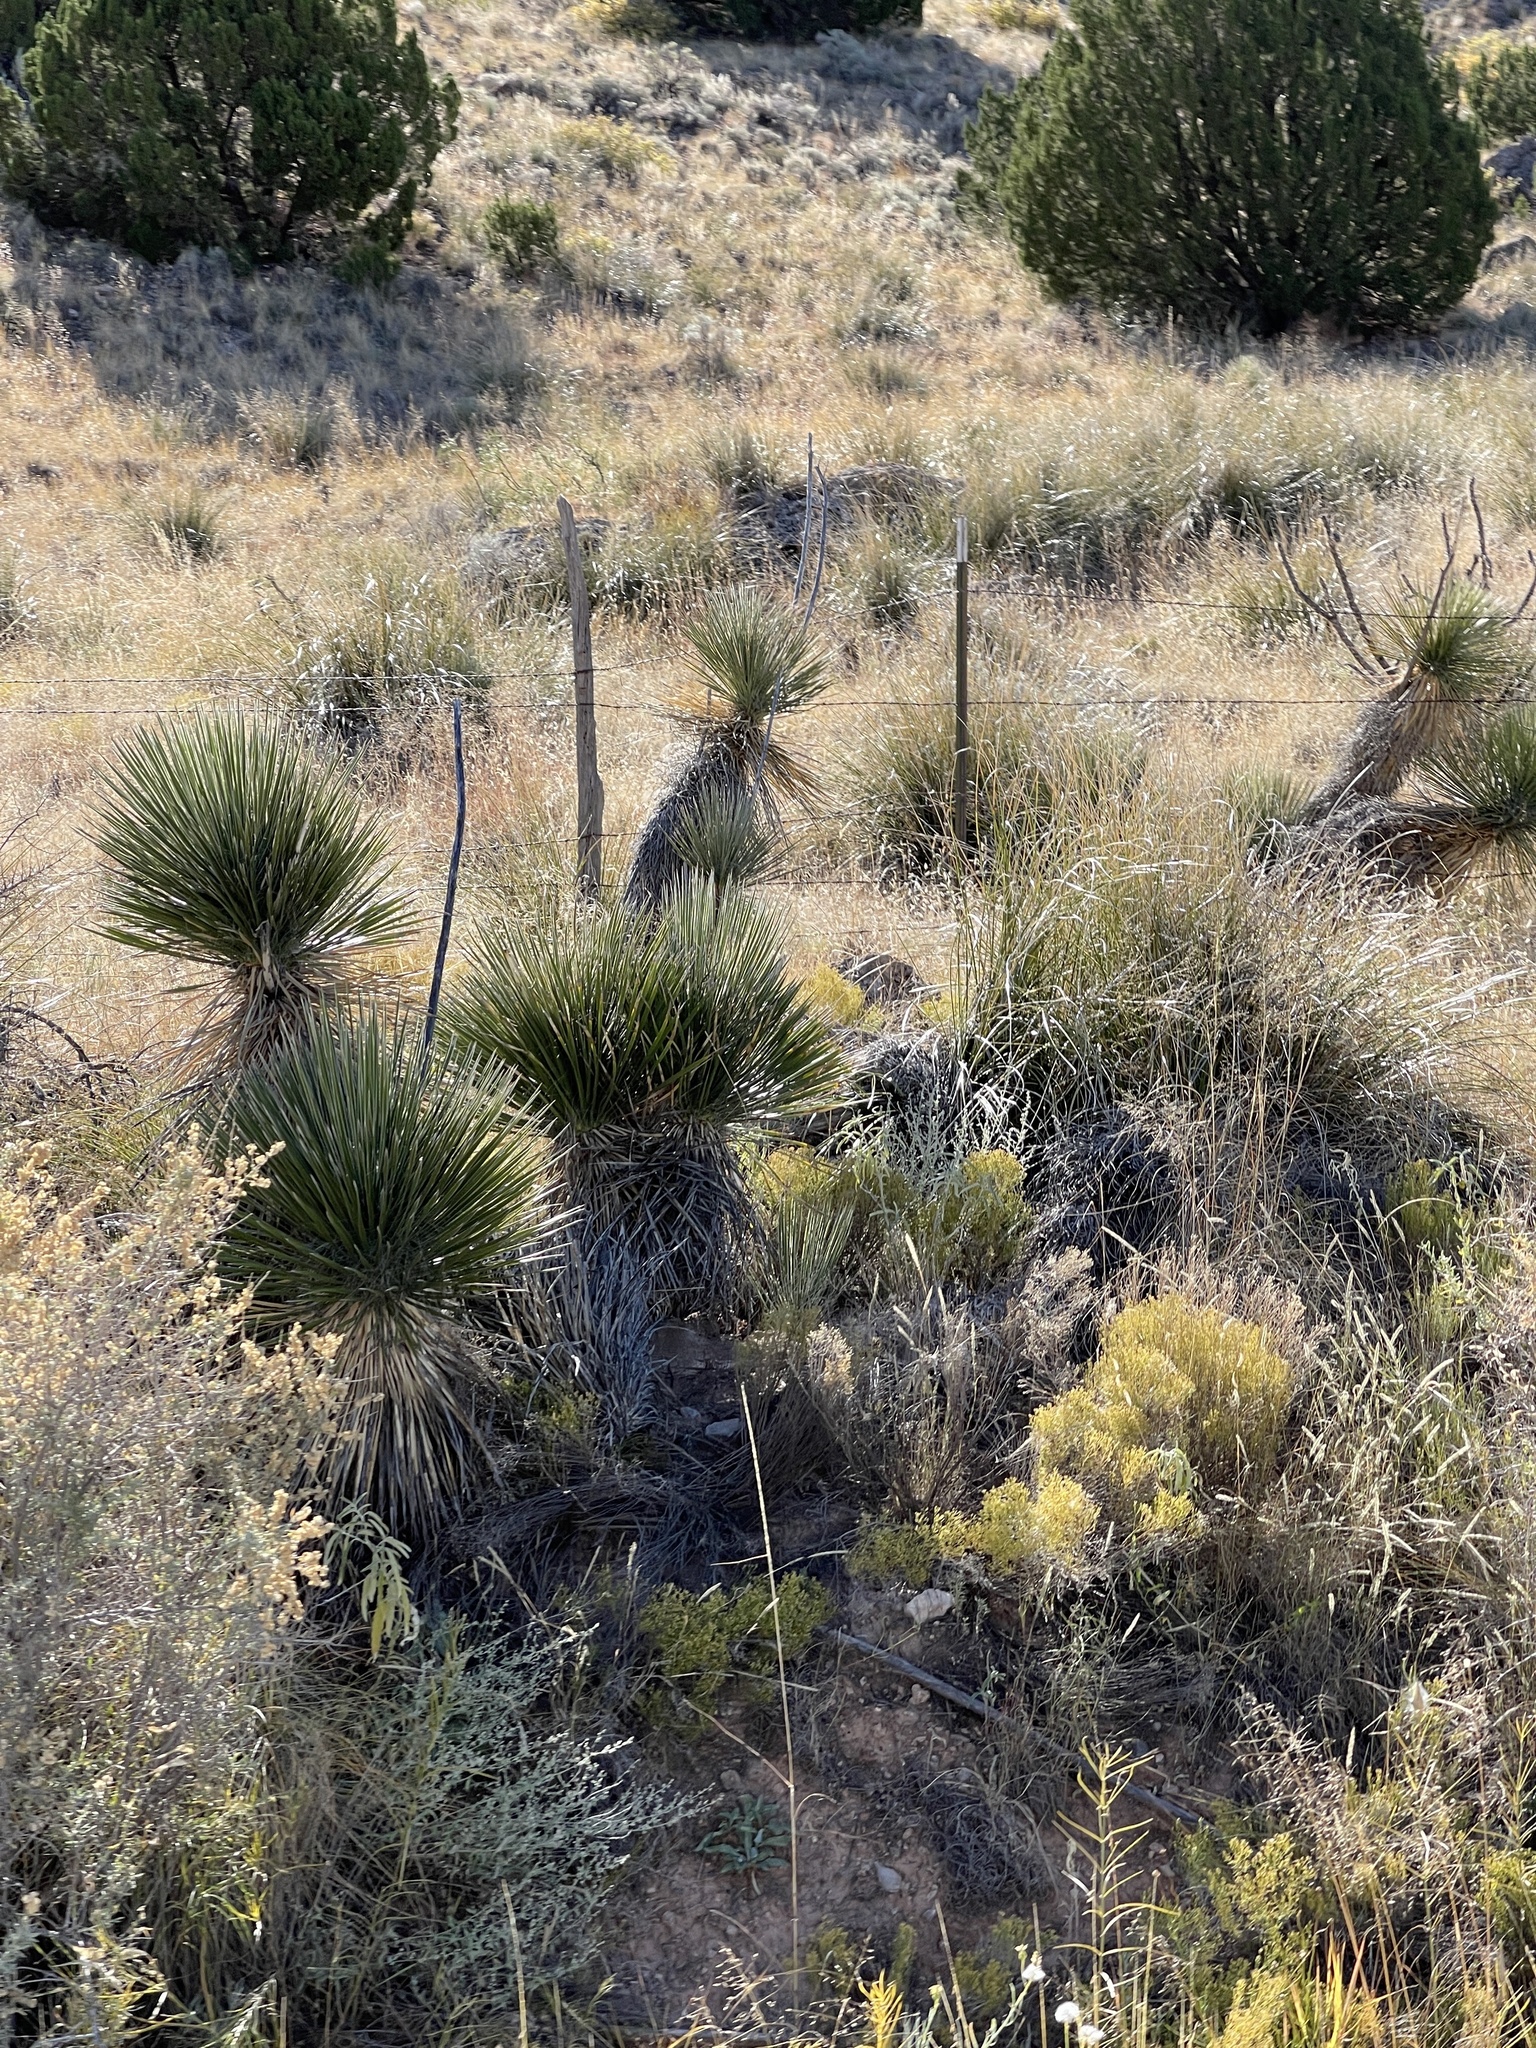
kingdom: Plantae
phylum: Tracheophyta
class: Liliopsida
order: Asparagales
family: Asparagaceae
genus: Yucca
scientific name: Yucca elata
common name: Palmella
